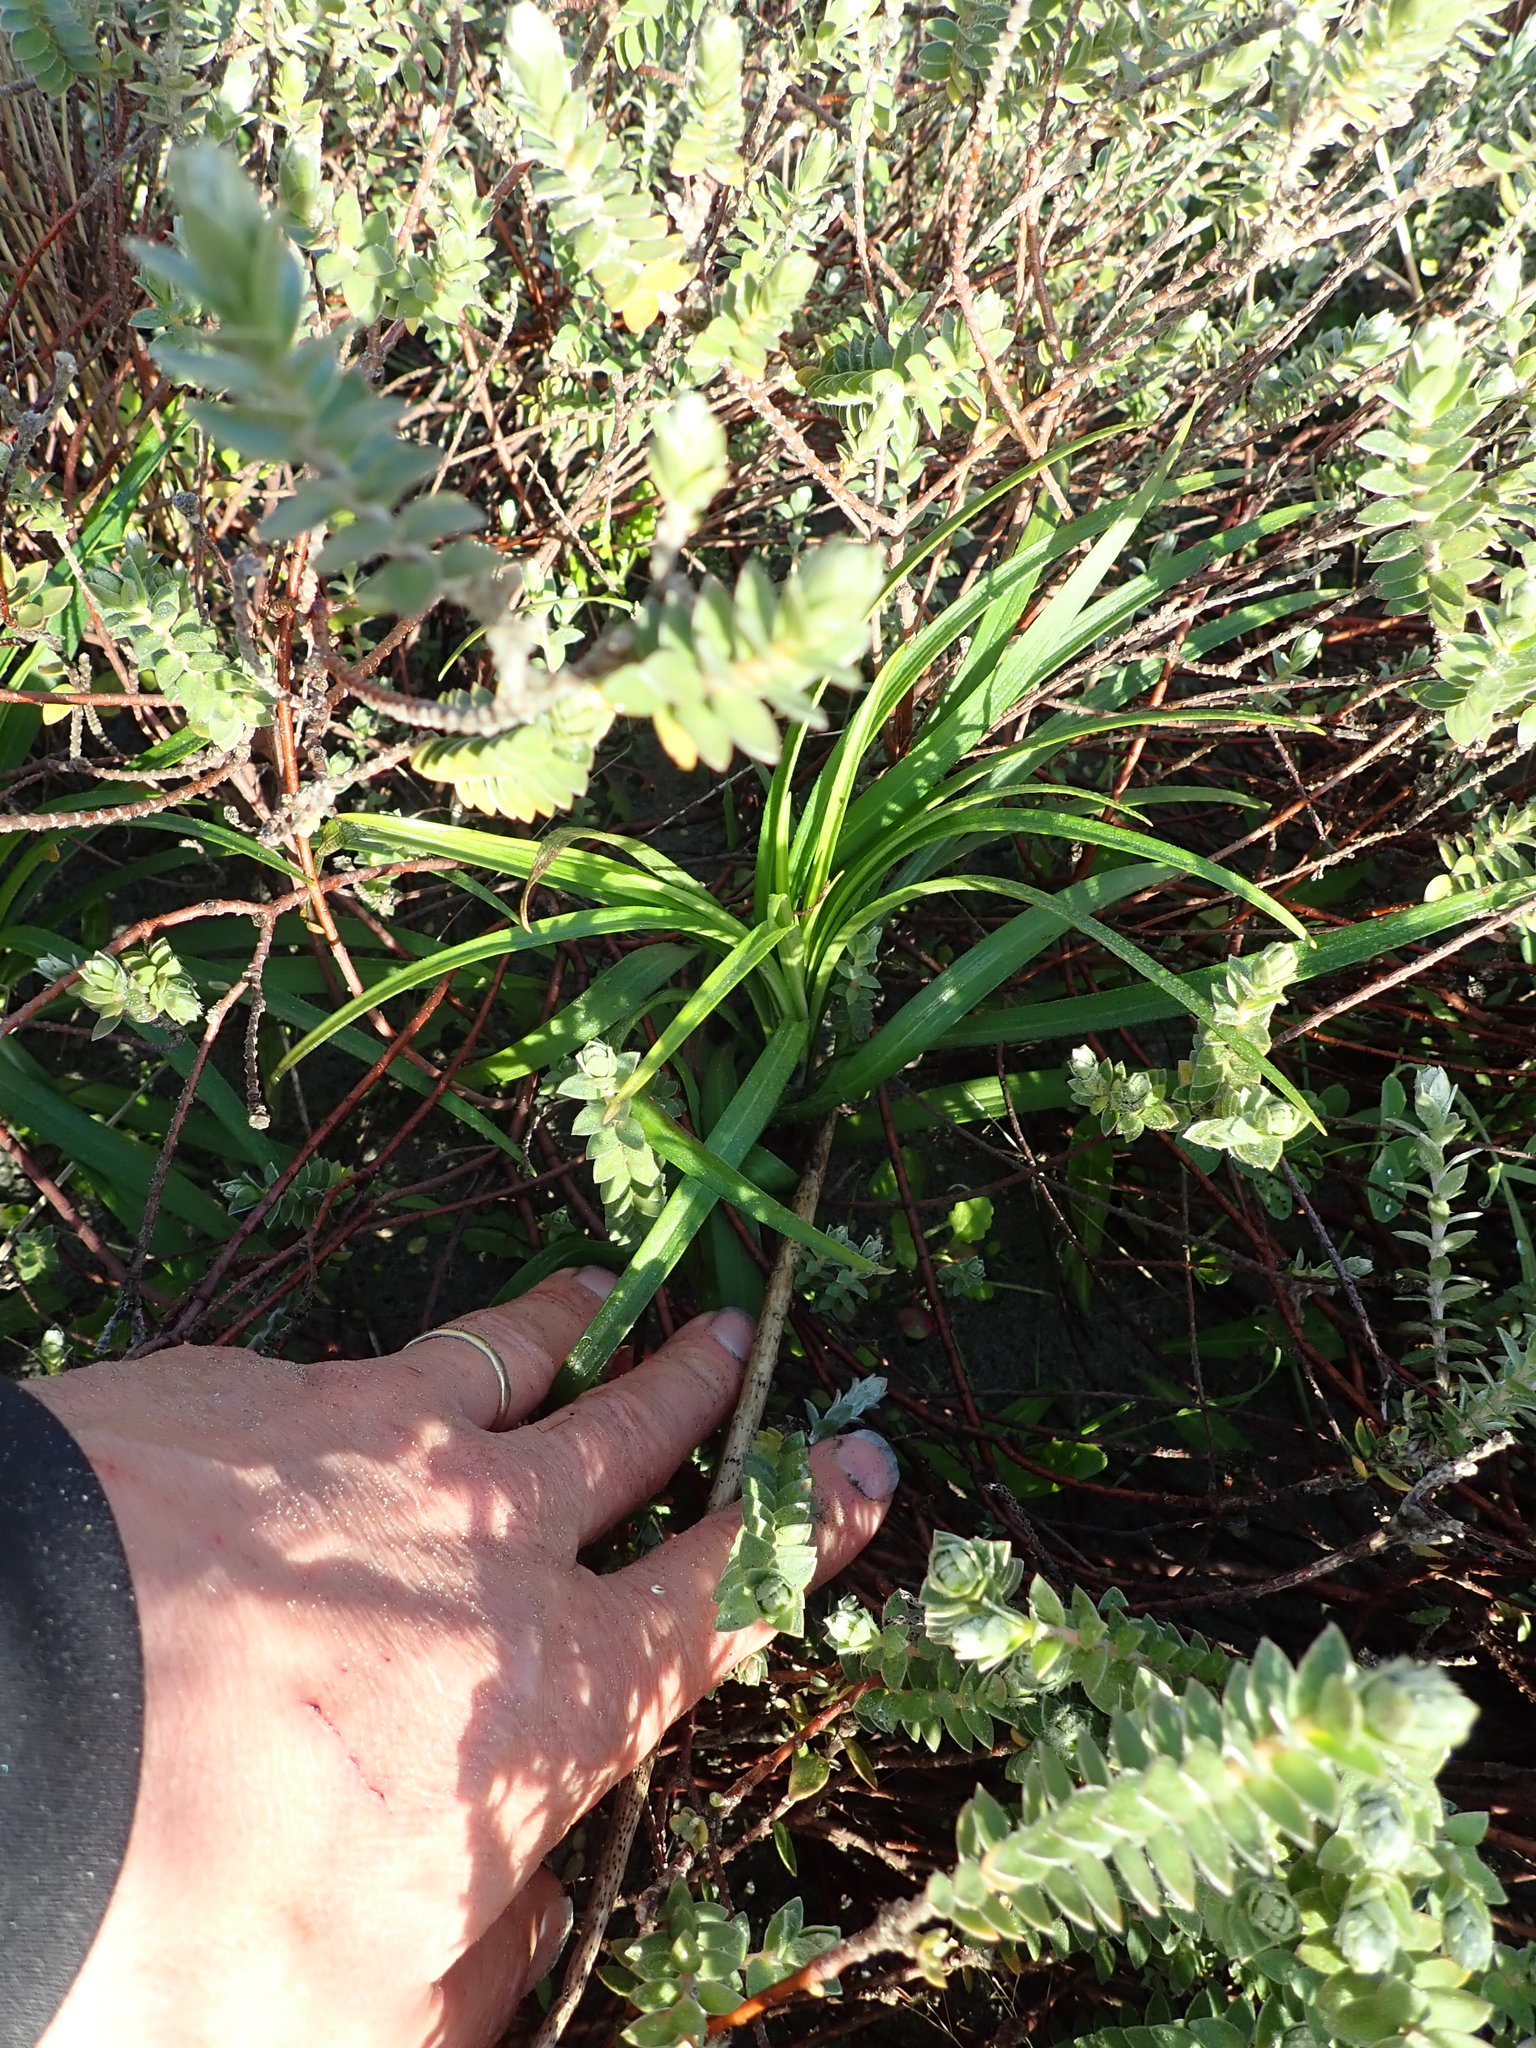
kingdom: Plantae
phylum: Tracheophyta
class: Liliopsida
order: Liliales
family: Liliaceae
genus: Lilium
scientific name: Lilium formosanum
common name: Formosa lily
